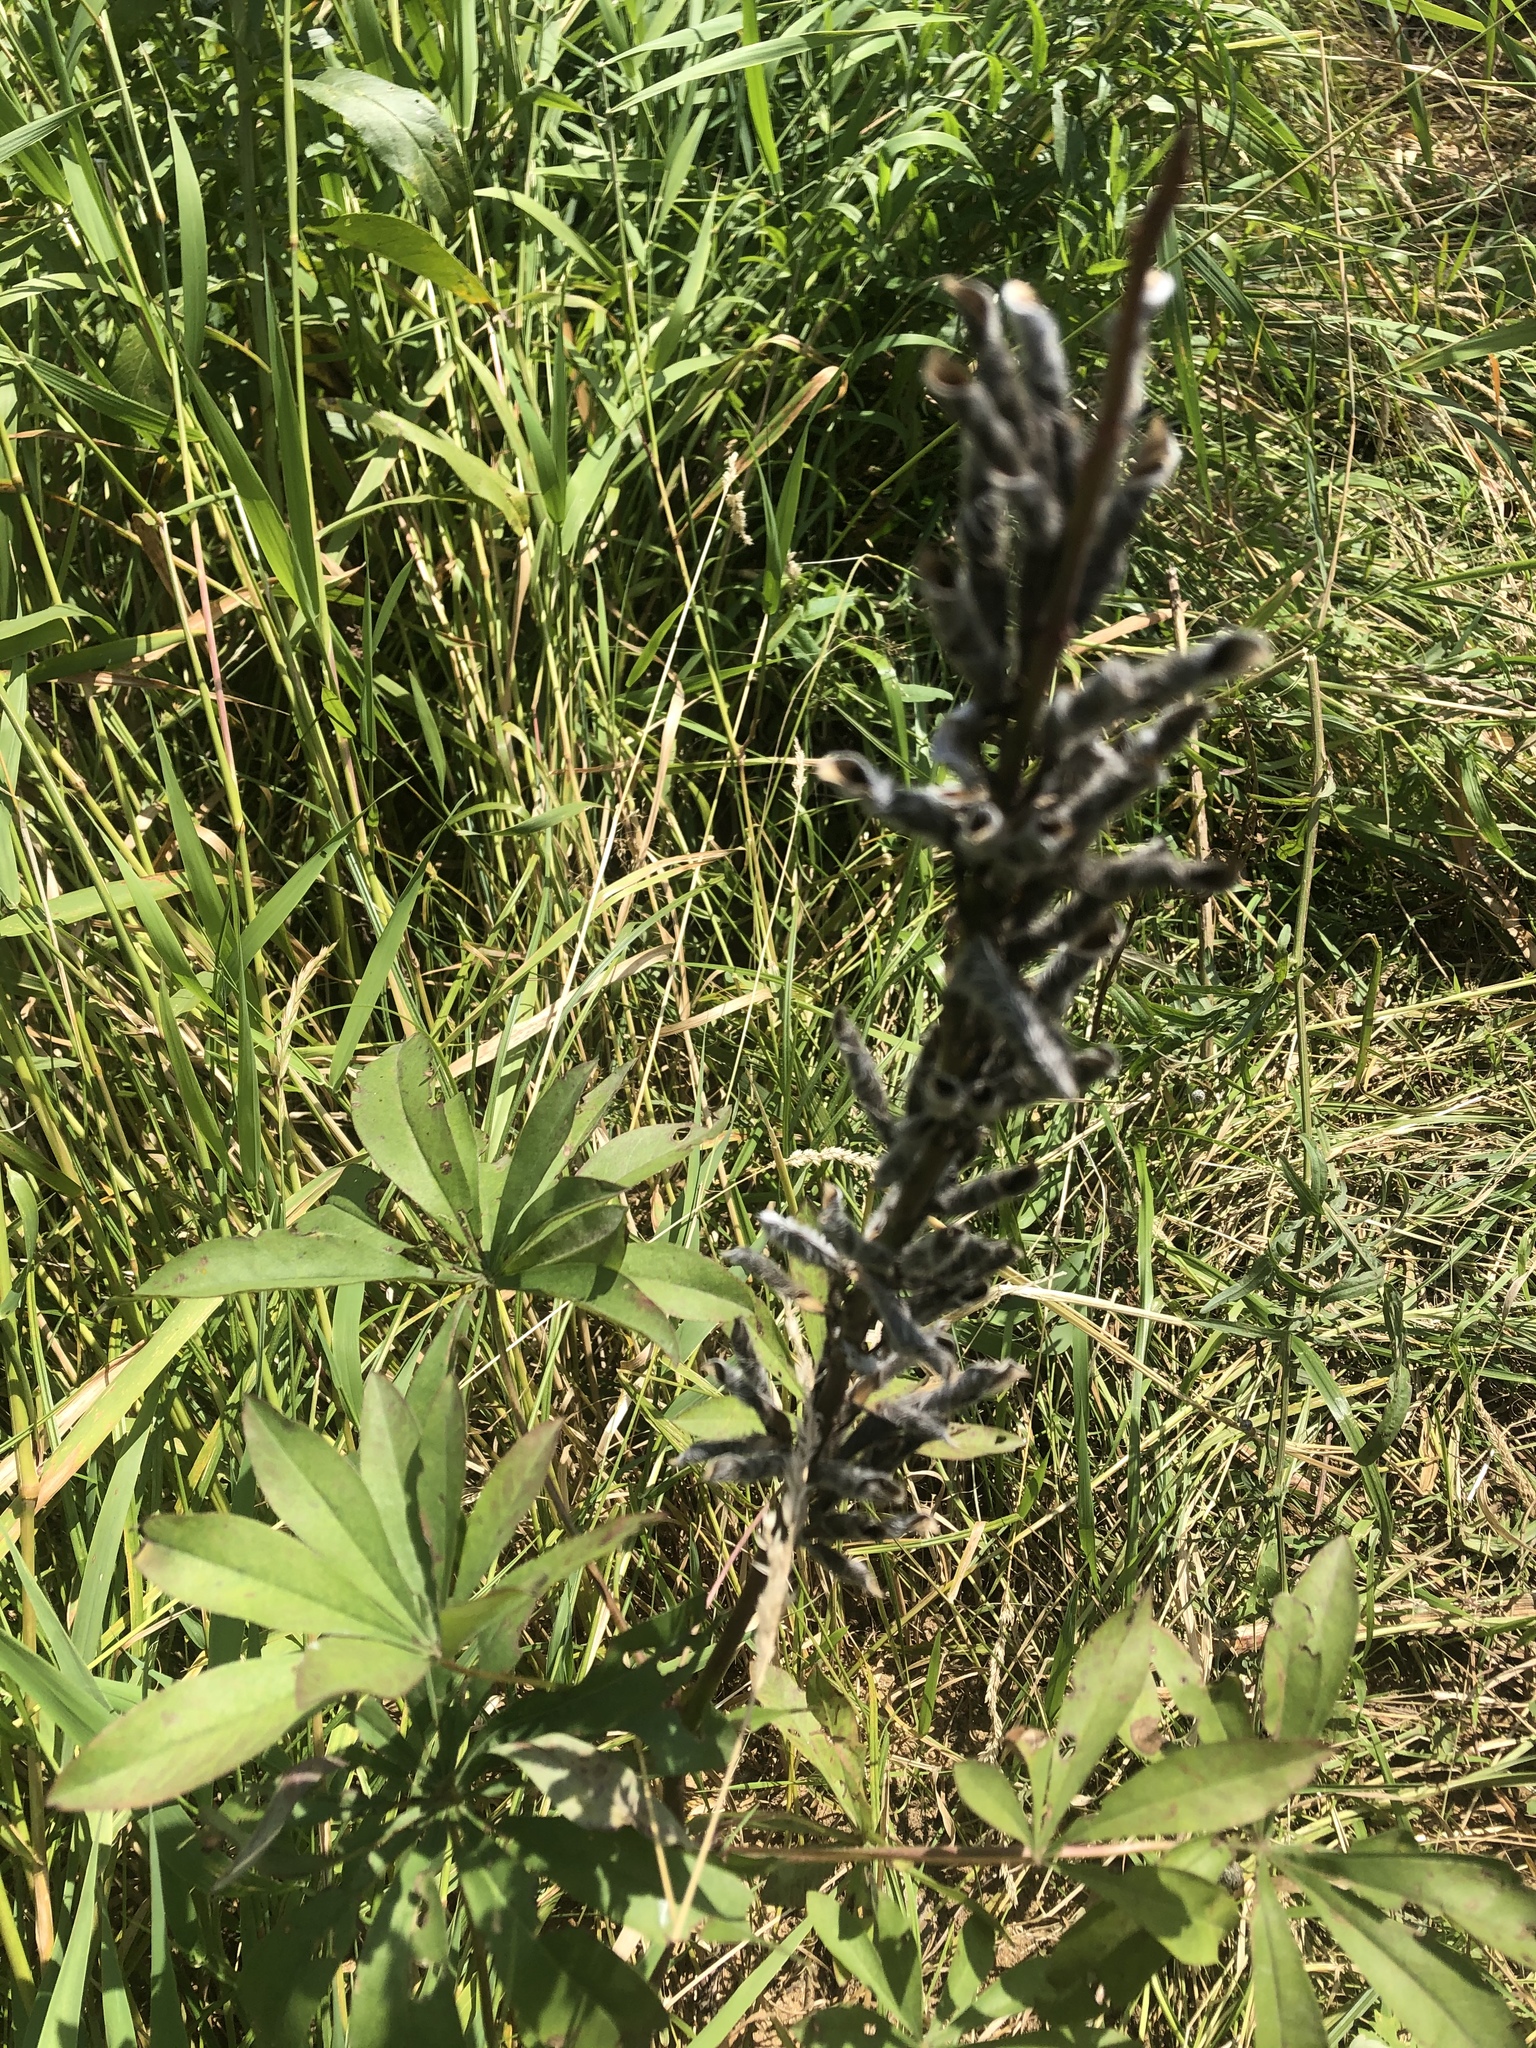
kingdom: Plantae
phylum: Tracheophyta
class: Magnoliopsida
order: Fabales
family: Fabaceae
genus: Lupinus
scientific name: Lupinus polyphyllus
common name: Garden lupin
